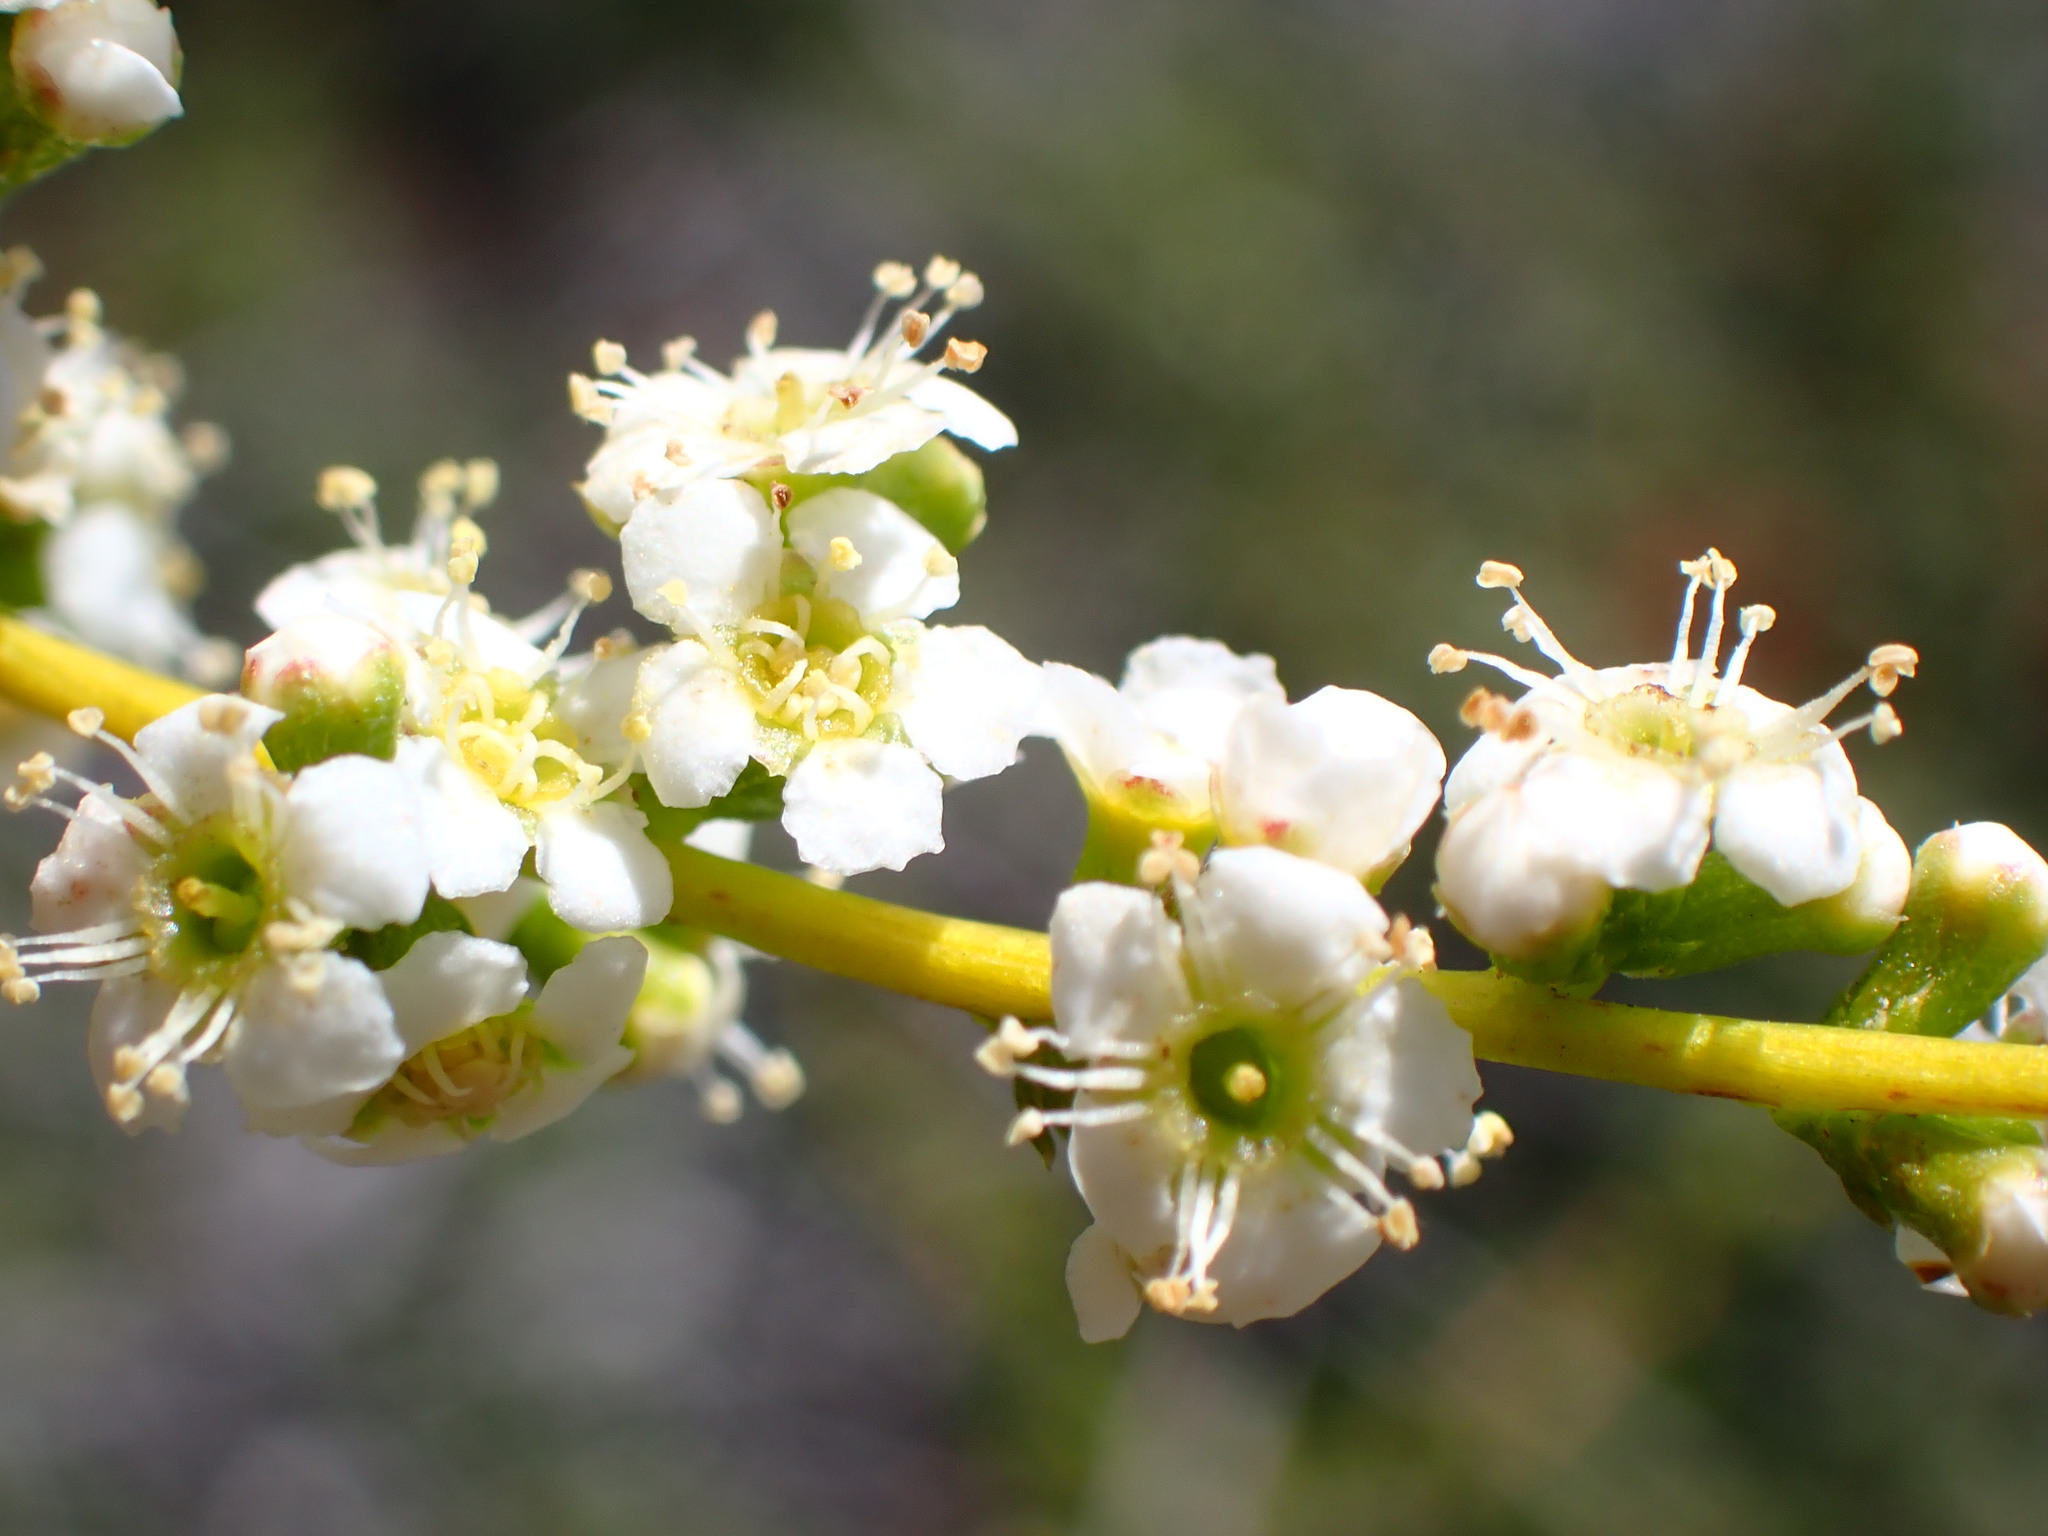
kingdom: Plantae
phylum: Tracheophyta
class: Magnoliopsida
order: Rosales
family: Rosaceae
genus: Adenostoma
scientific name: Adenostoma fasciculatum
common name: Chamise
